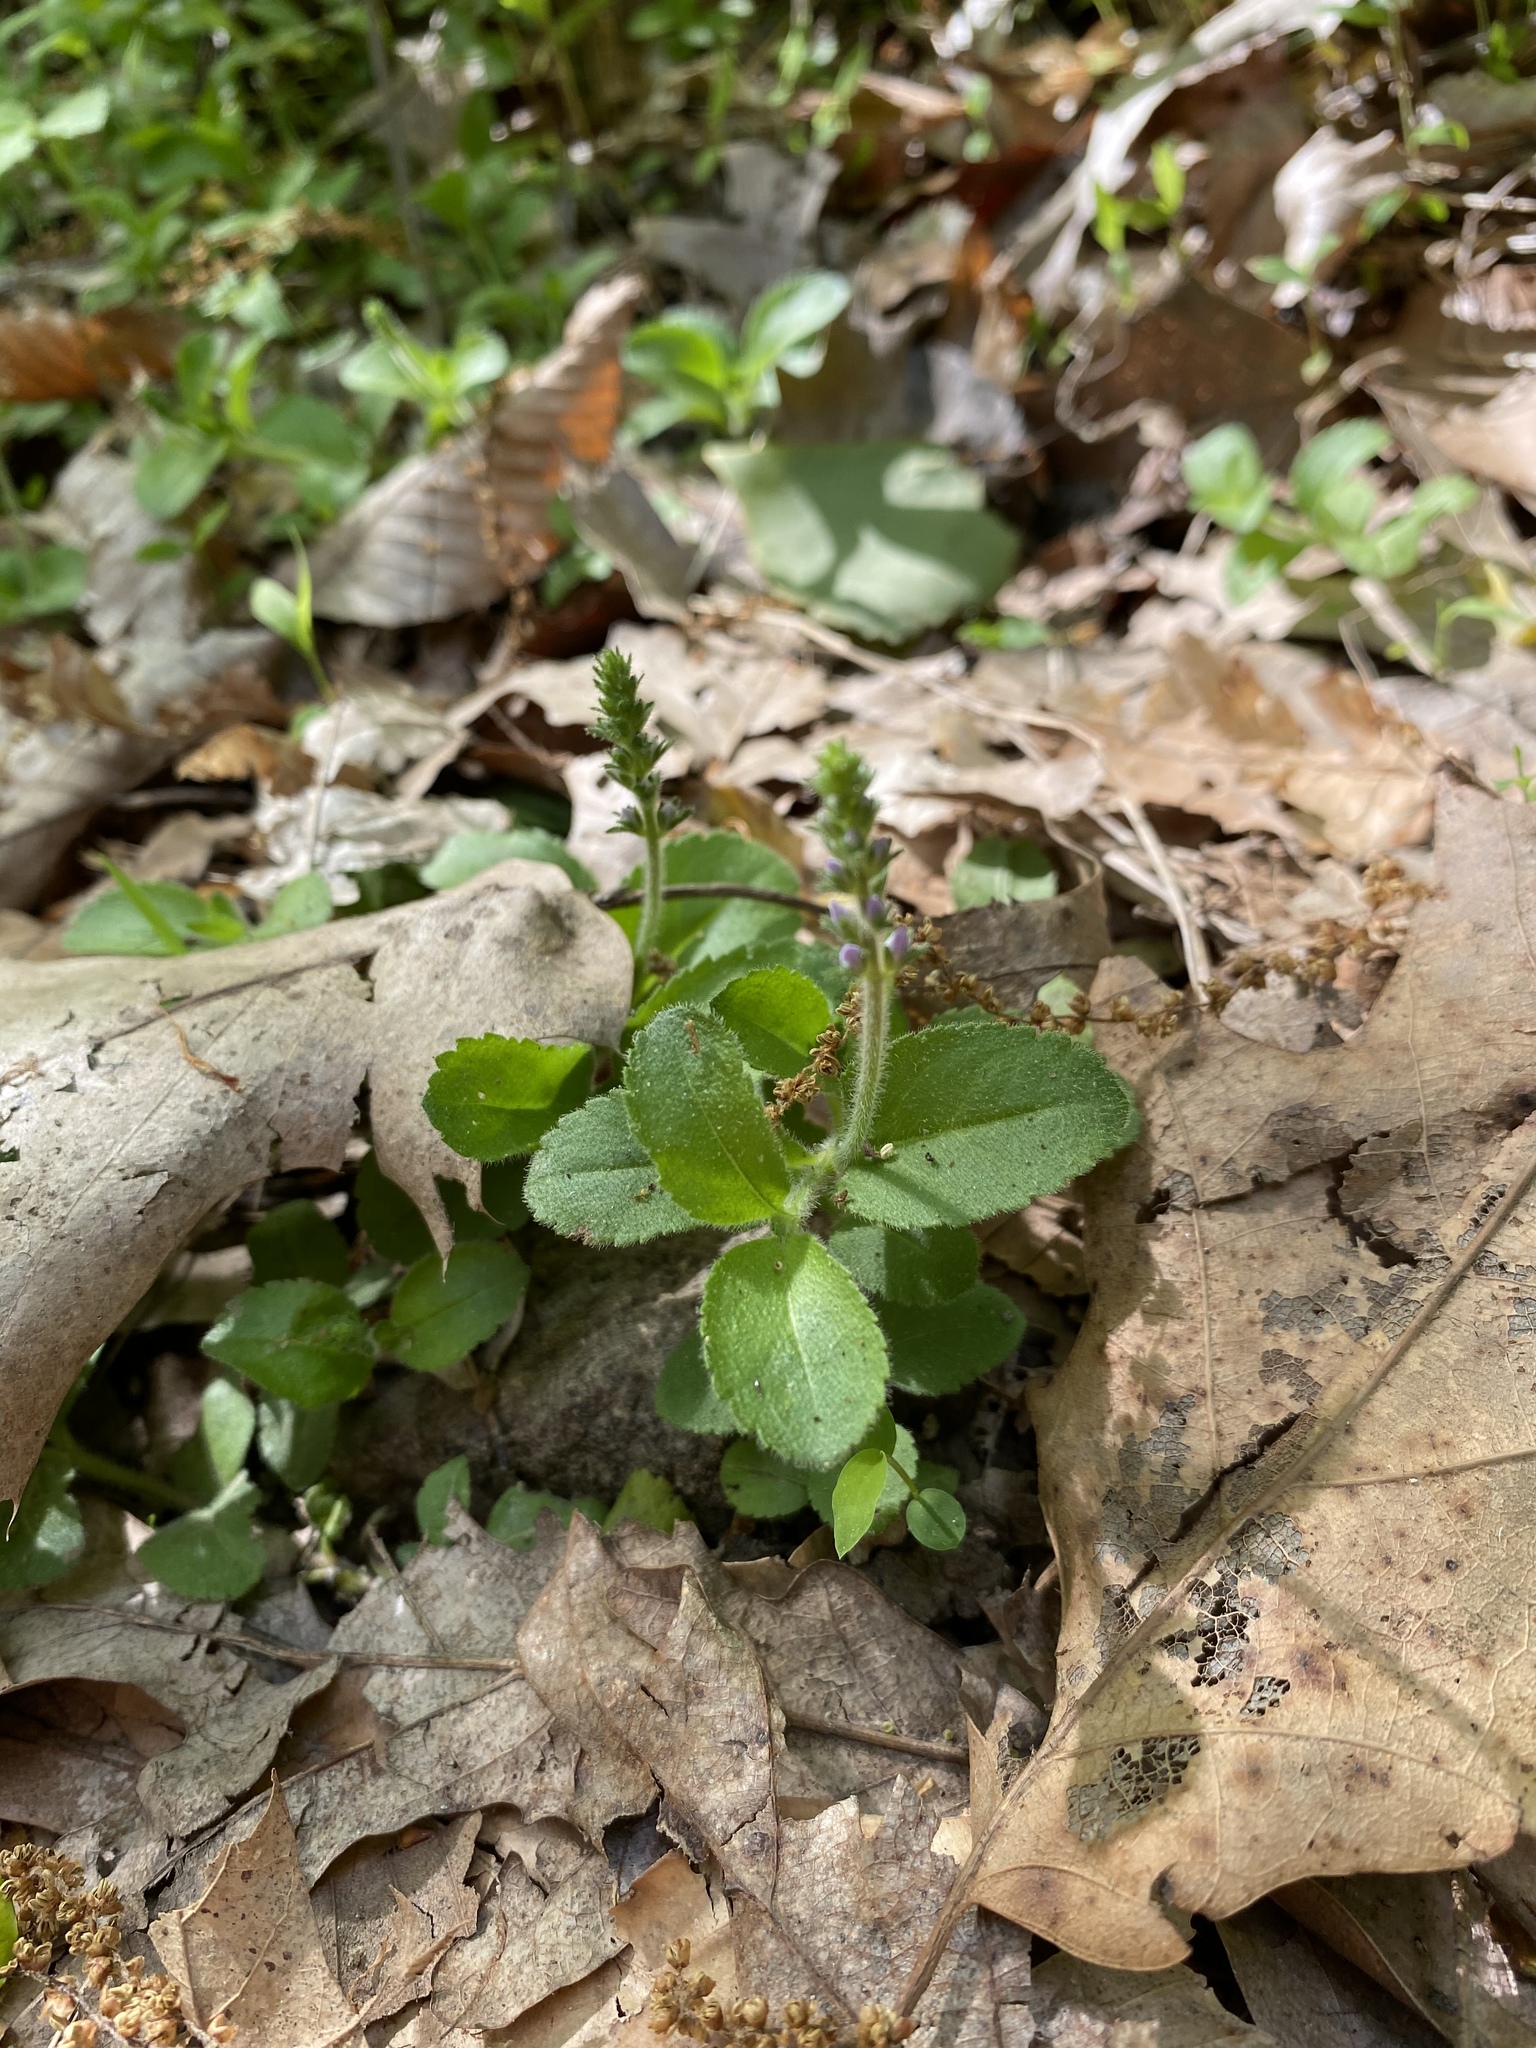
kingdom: Plantae
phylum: Tracheophyta
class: Magnoliopsida
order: Lamiales
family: Plantaginaceae
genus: Veronica
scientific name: Veronica officinalis
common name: Common speedwell
